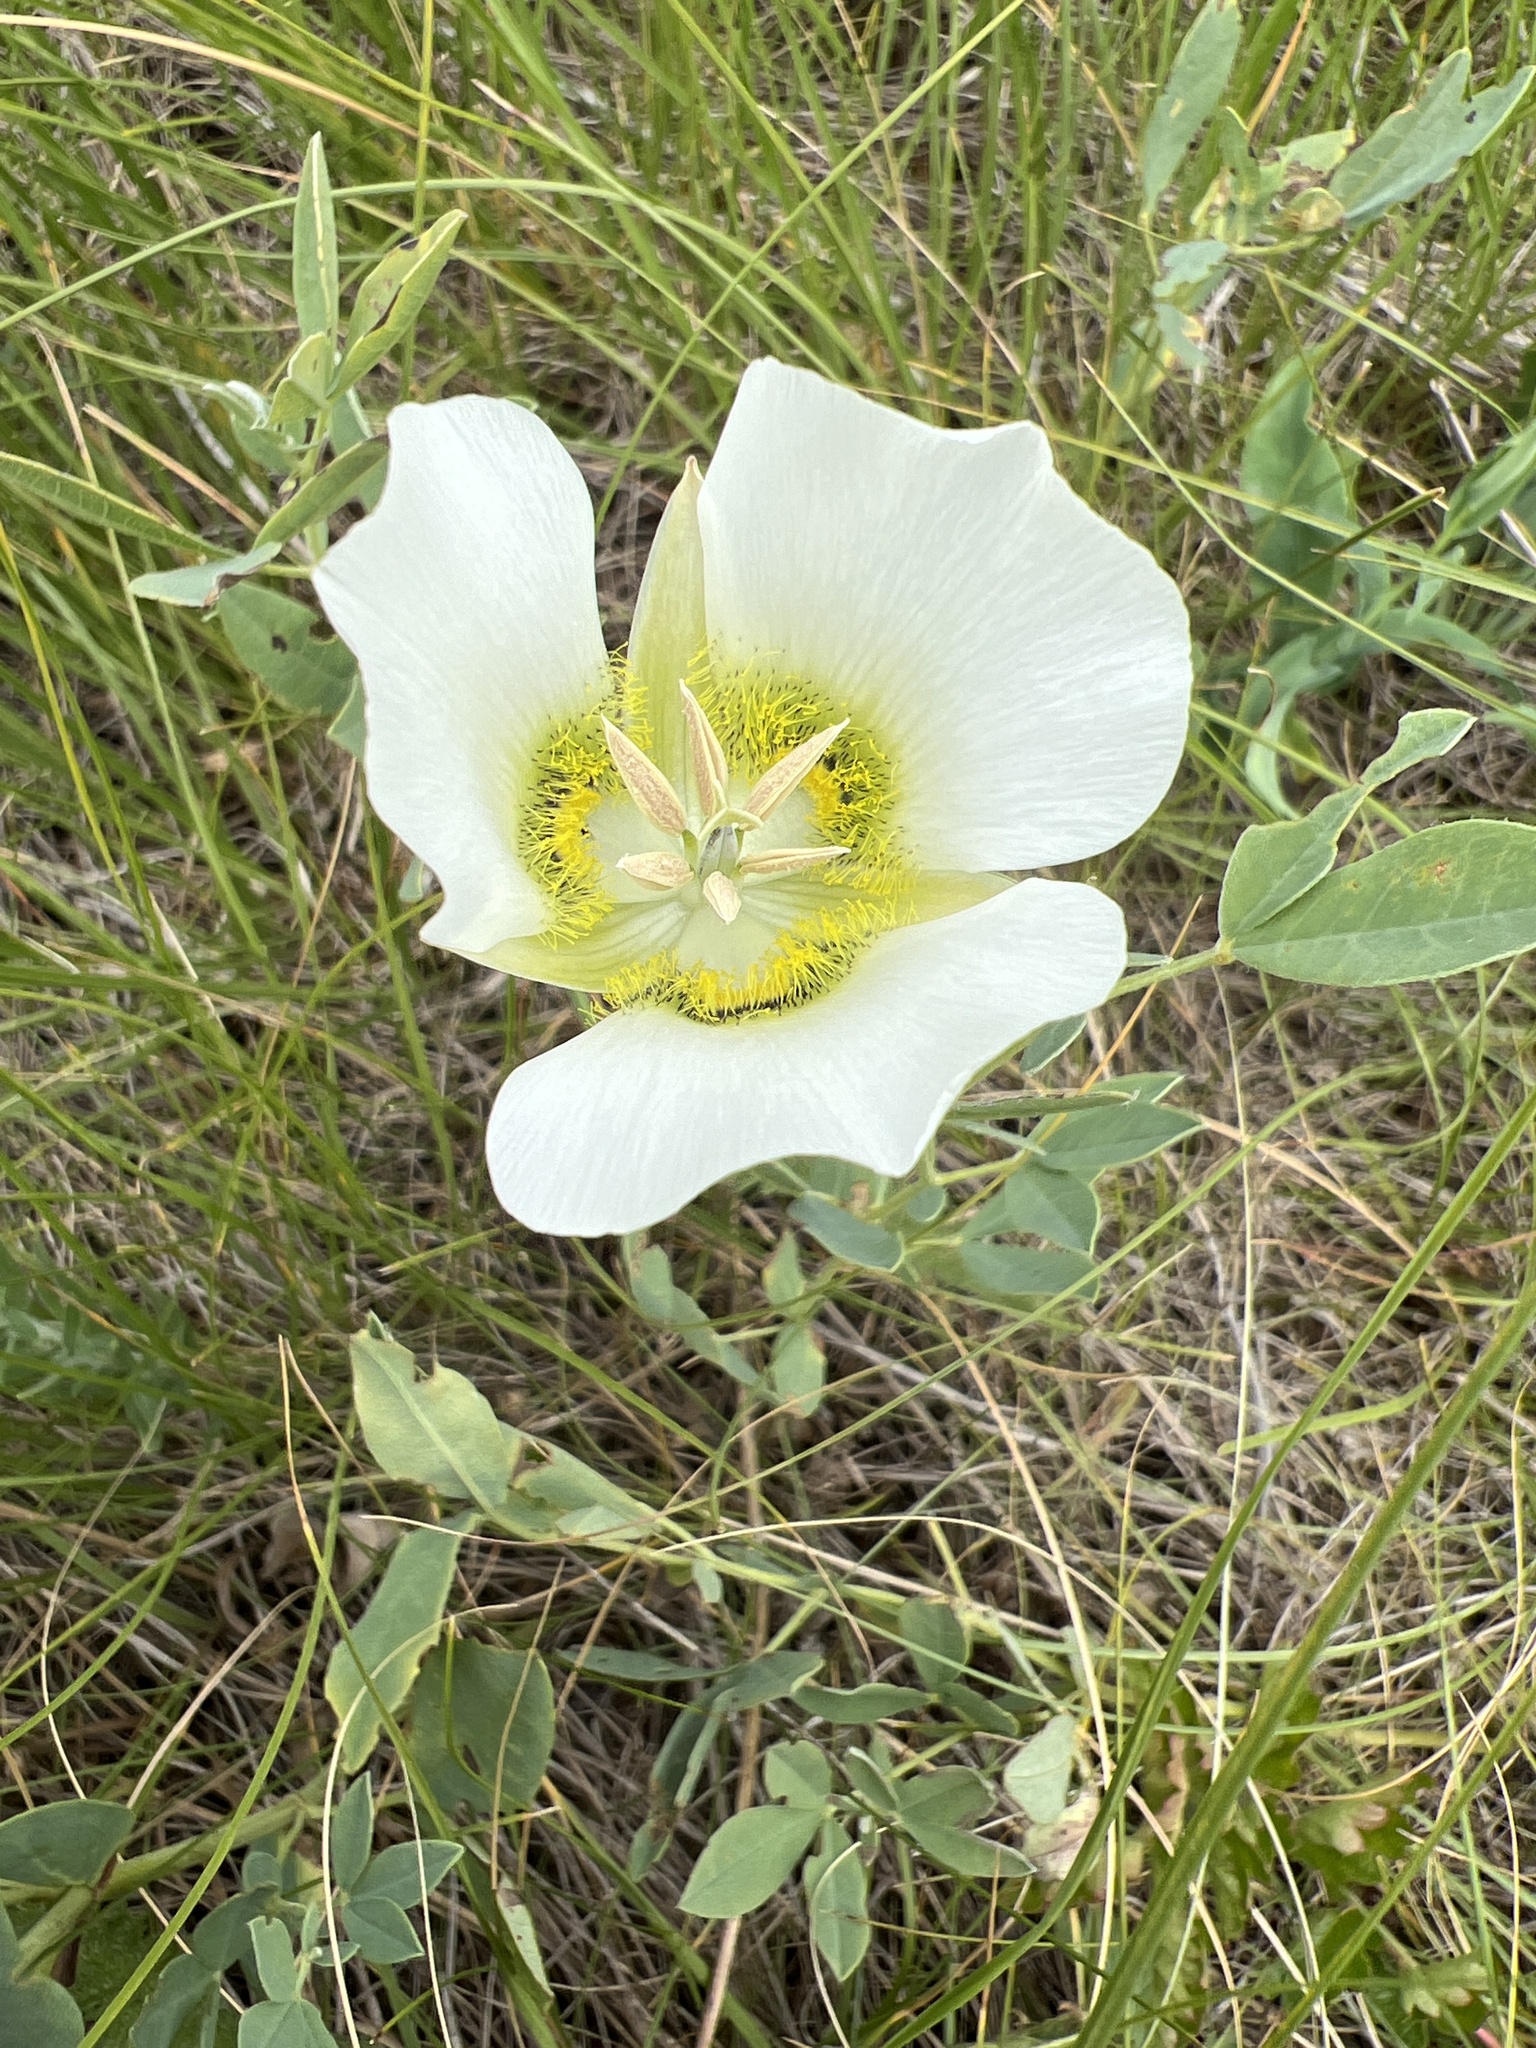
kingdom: Plantae
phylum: Tracheophyta
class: Liliopsida
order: Liliales
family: Liliaceae
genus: Calochortus
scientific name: Calochortus gunnisonii
